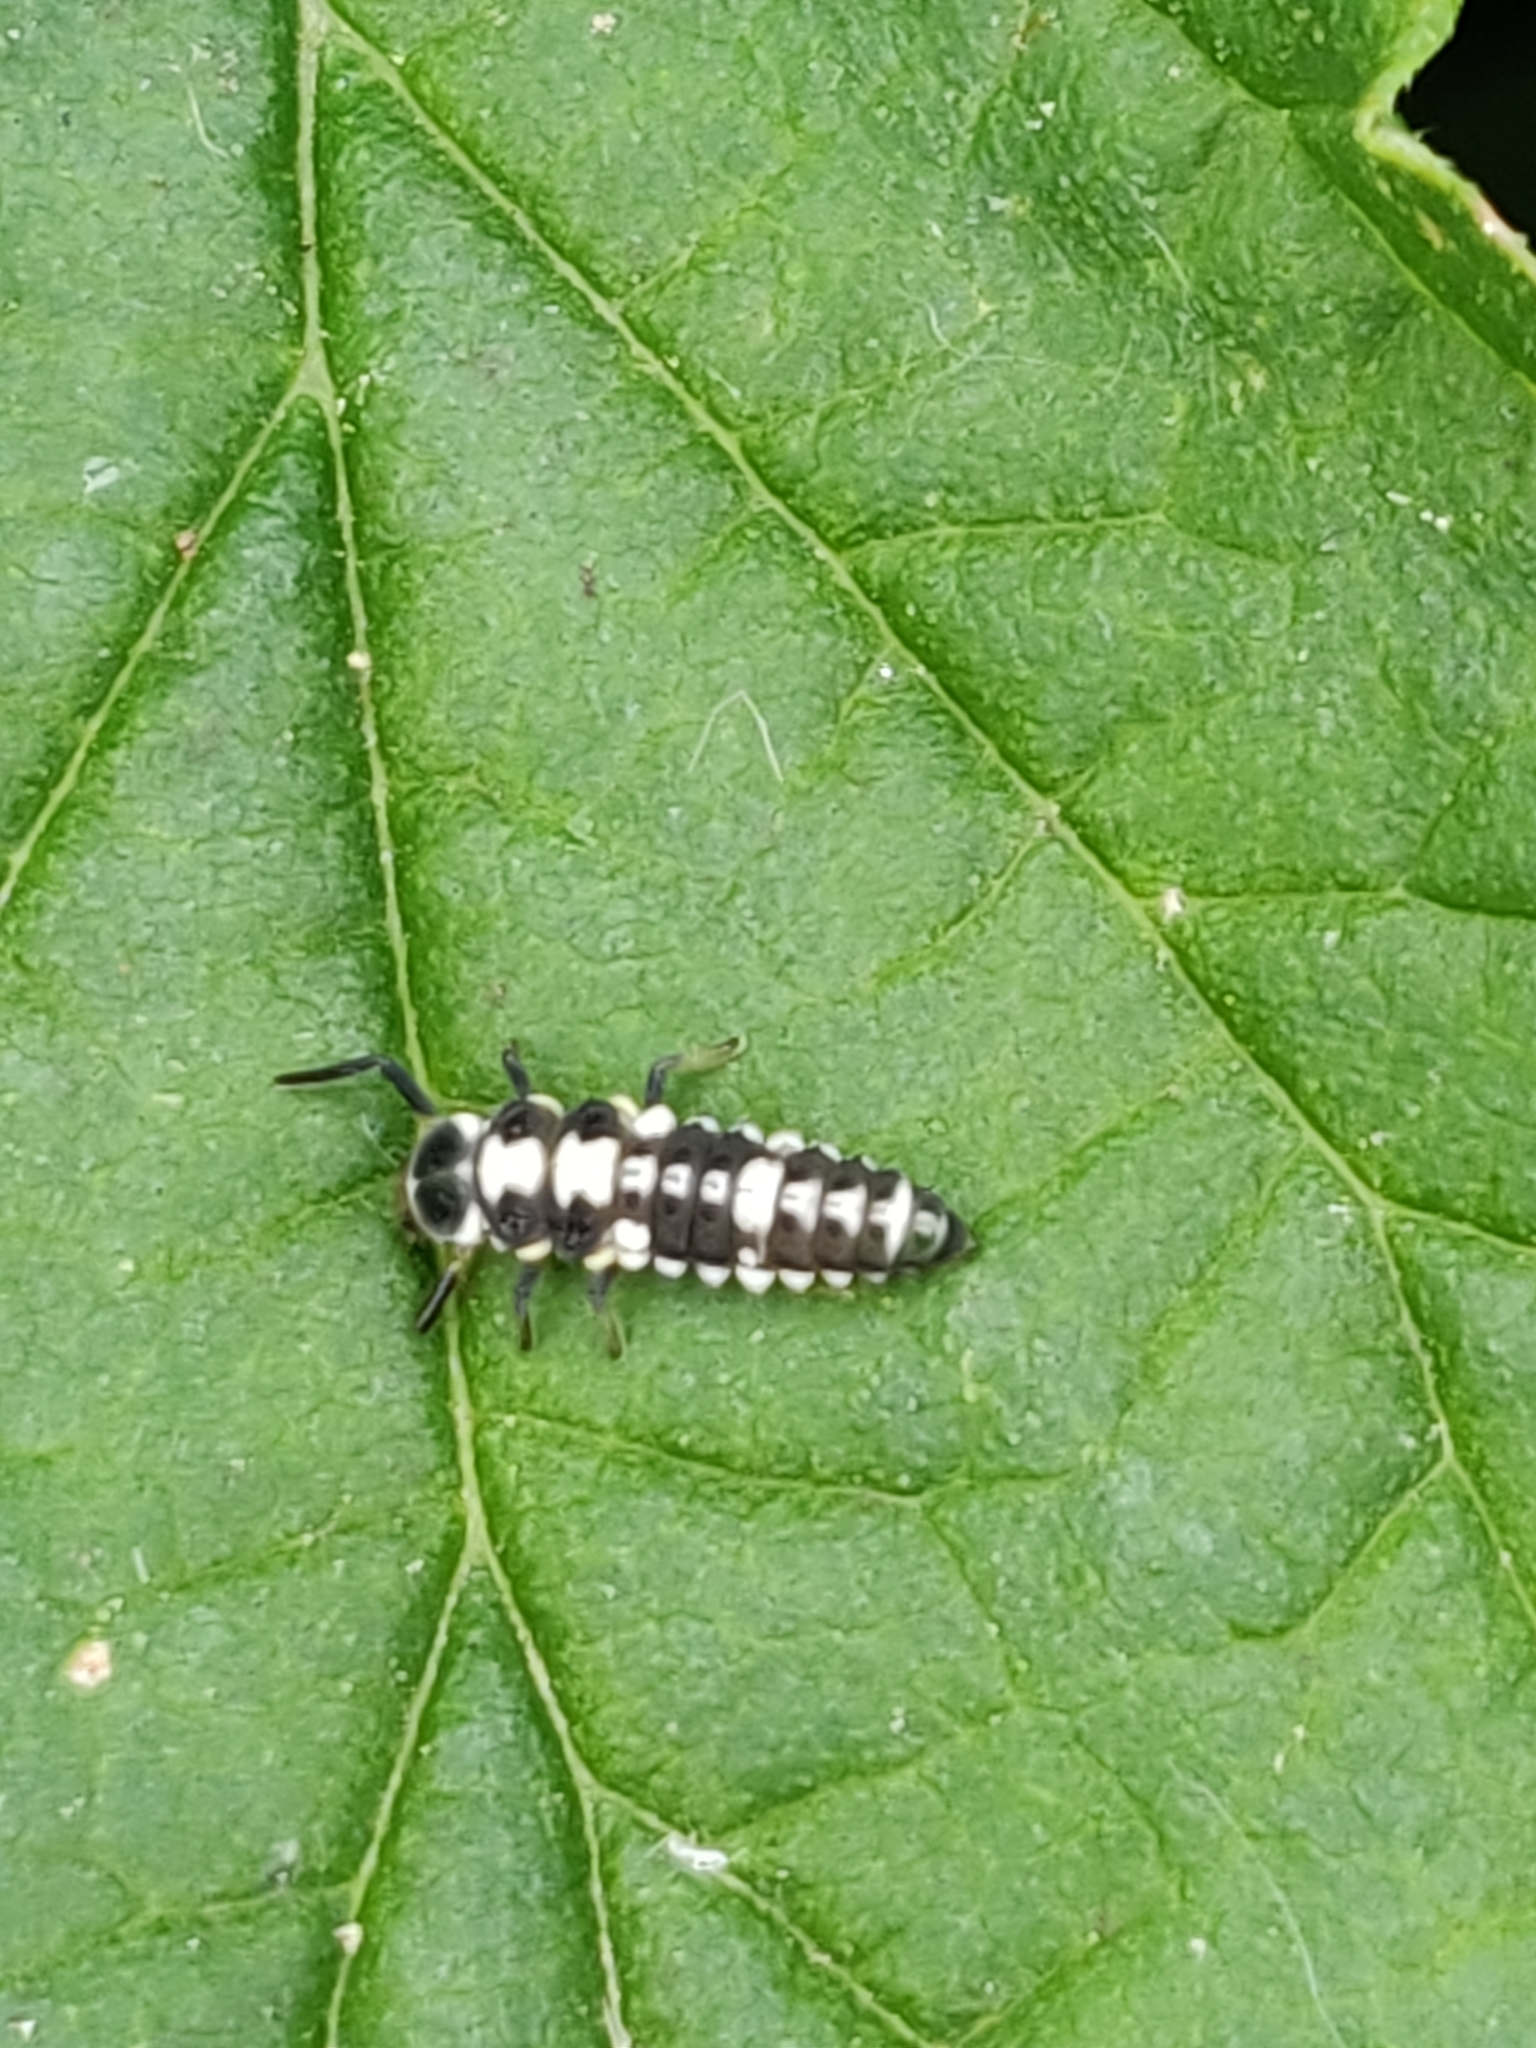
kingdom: Animalia
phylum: Arthropoda
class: Insecta
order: Coleoptera
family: Coccinellidae
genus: Propylaea
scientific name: Propylaea quatuordecimpunctata
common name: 14-spotted ladybird beetle
